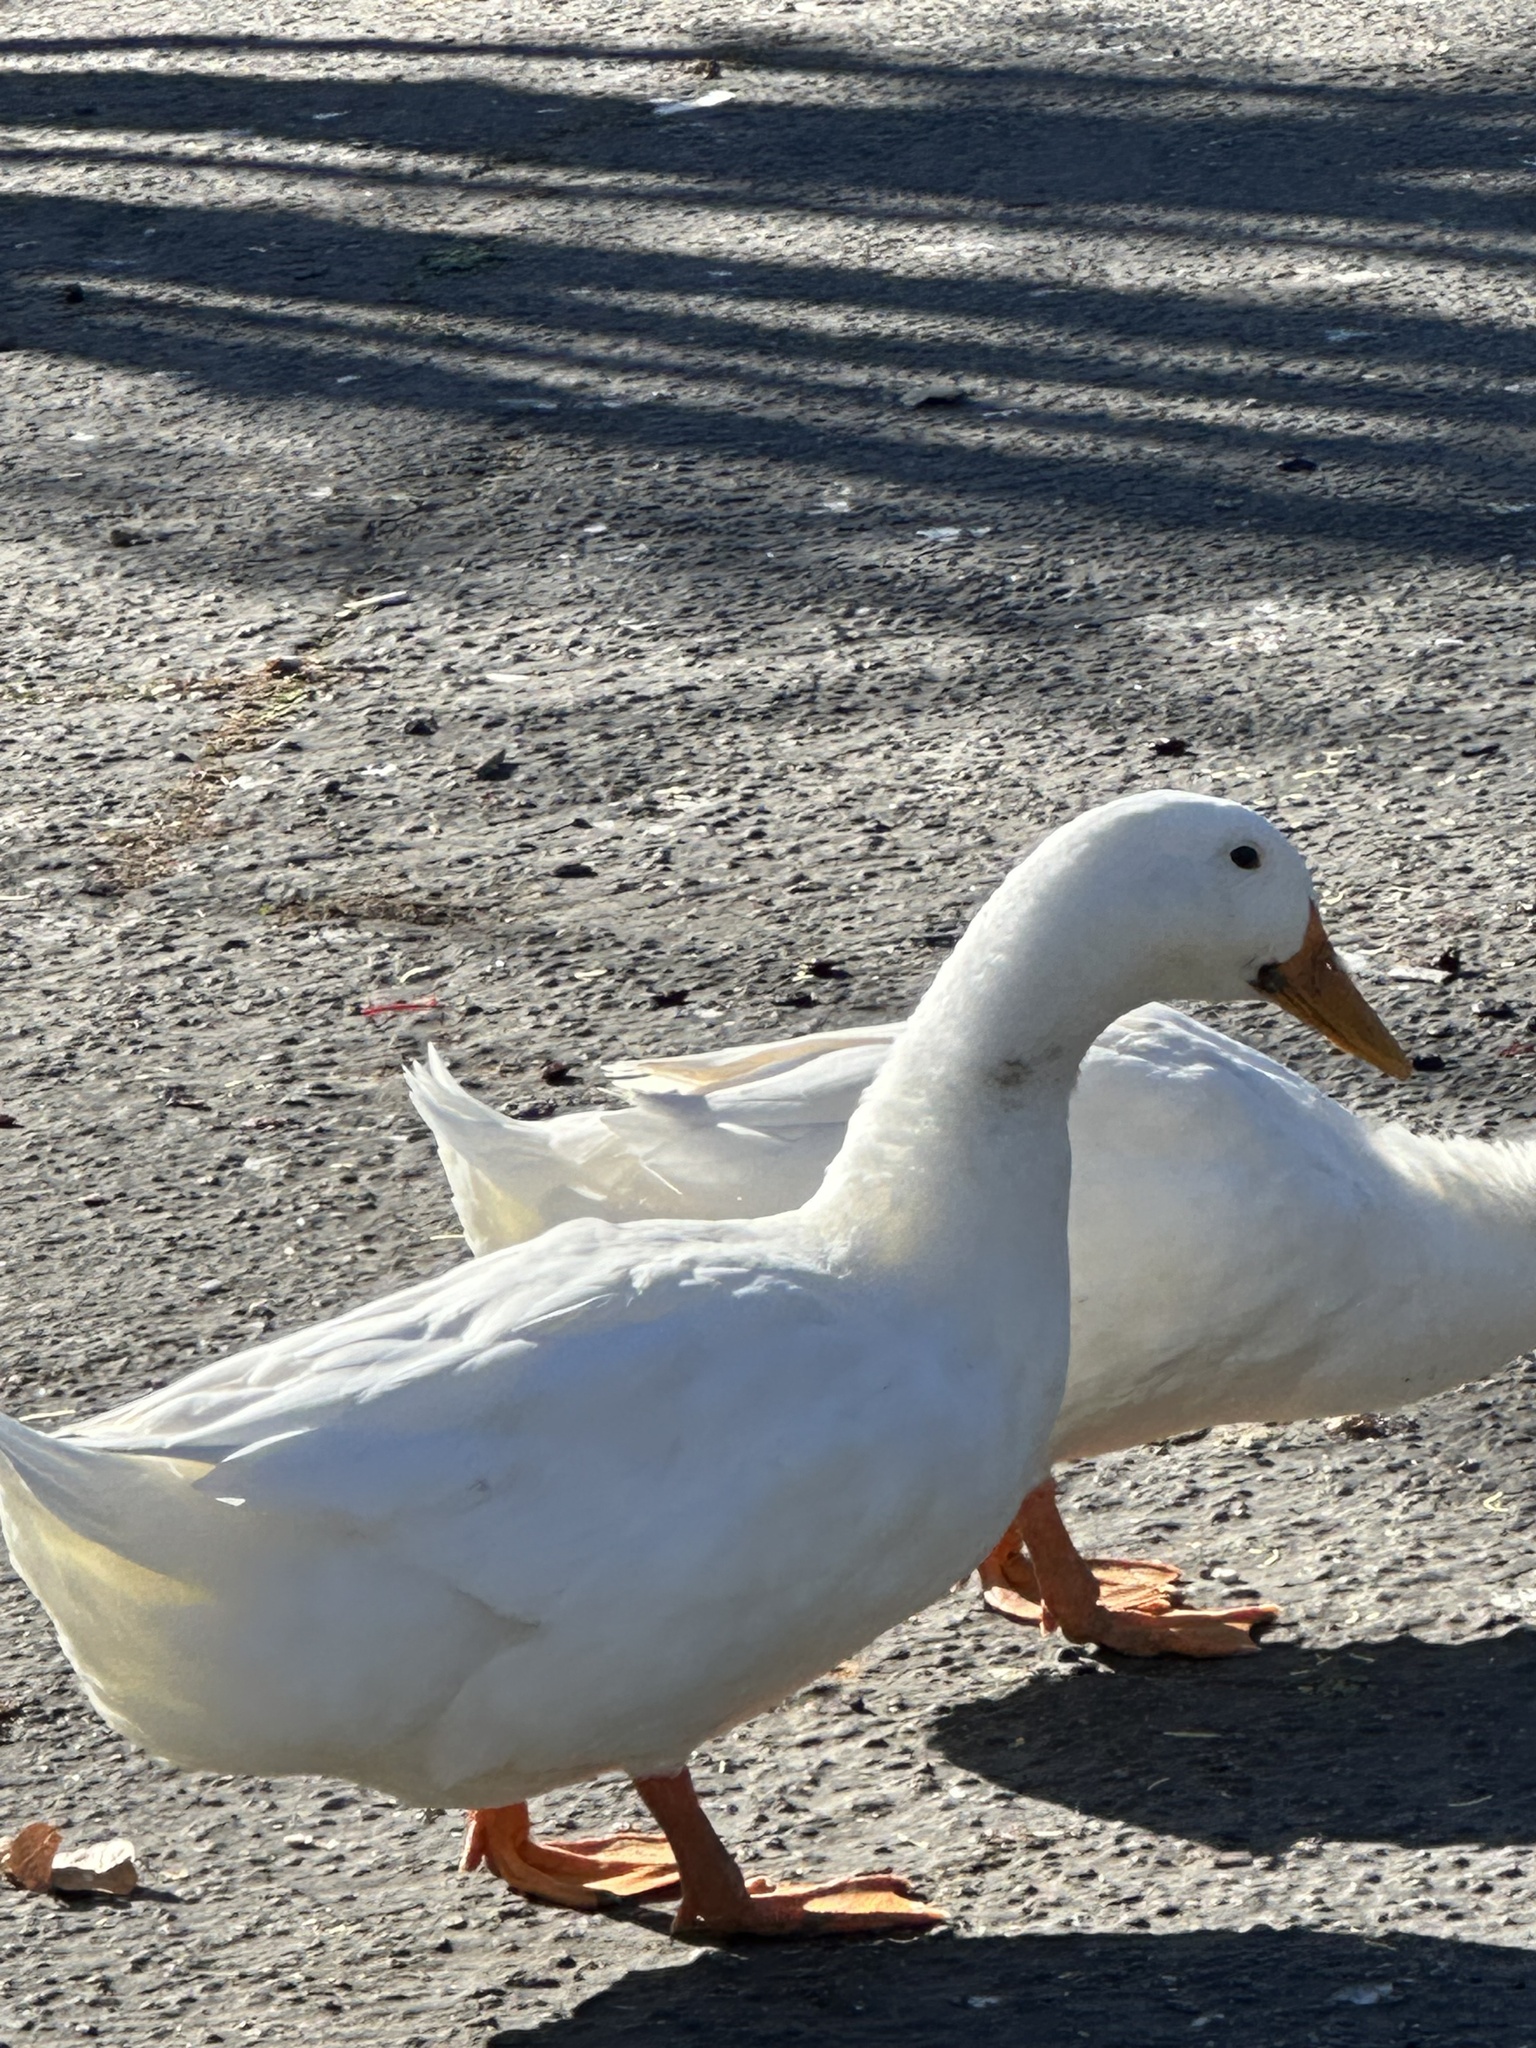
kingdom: Animalia
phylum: Chordata
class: Aves
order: Anseriformes
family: Anatidae
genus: Anas
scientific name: Anas platyrhynchos
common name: Mallard
